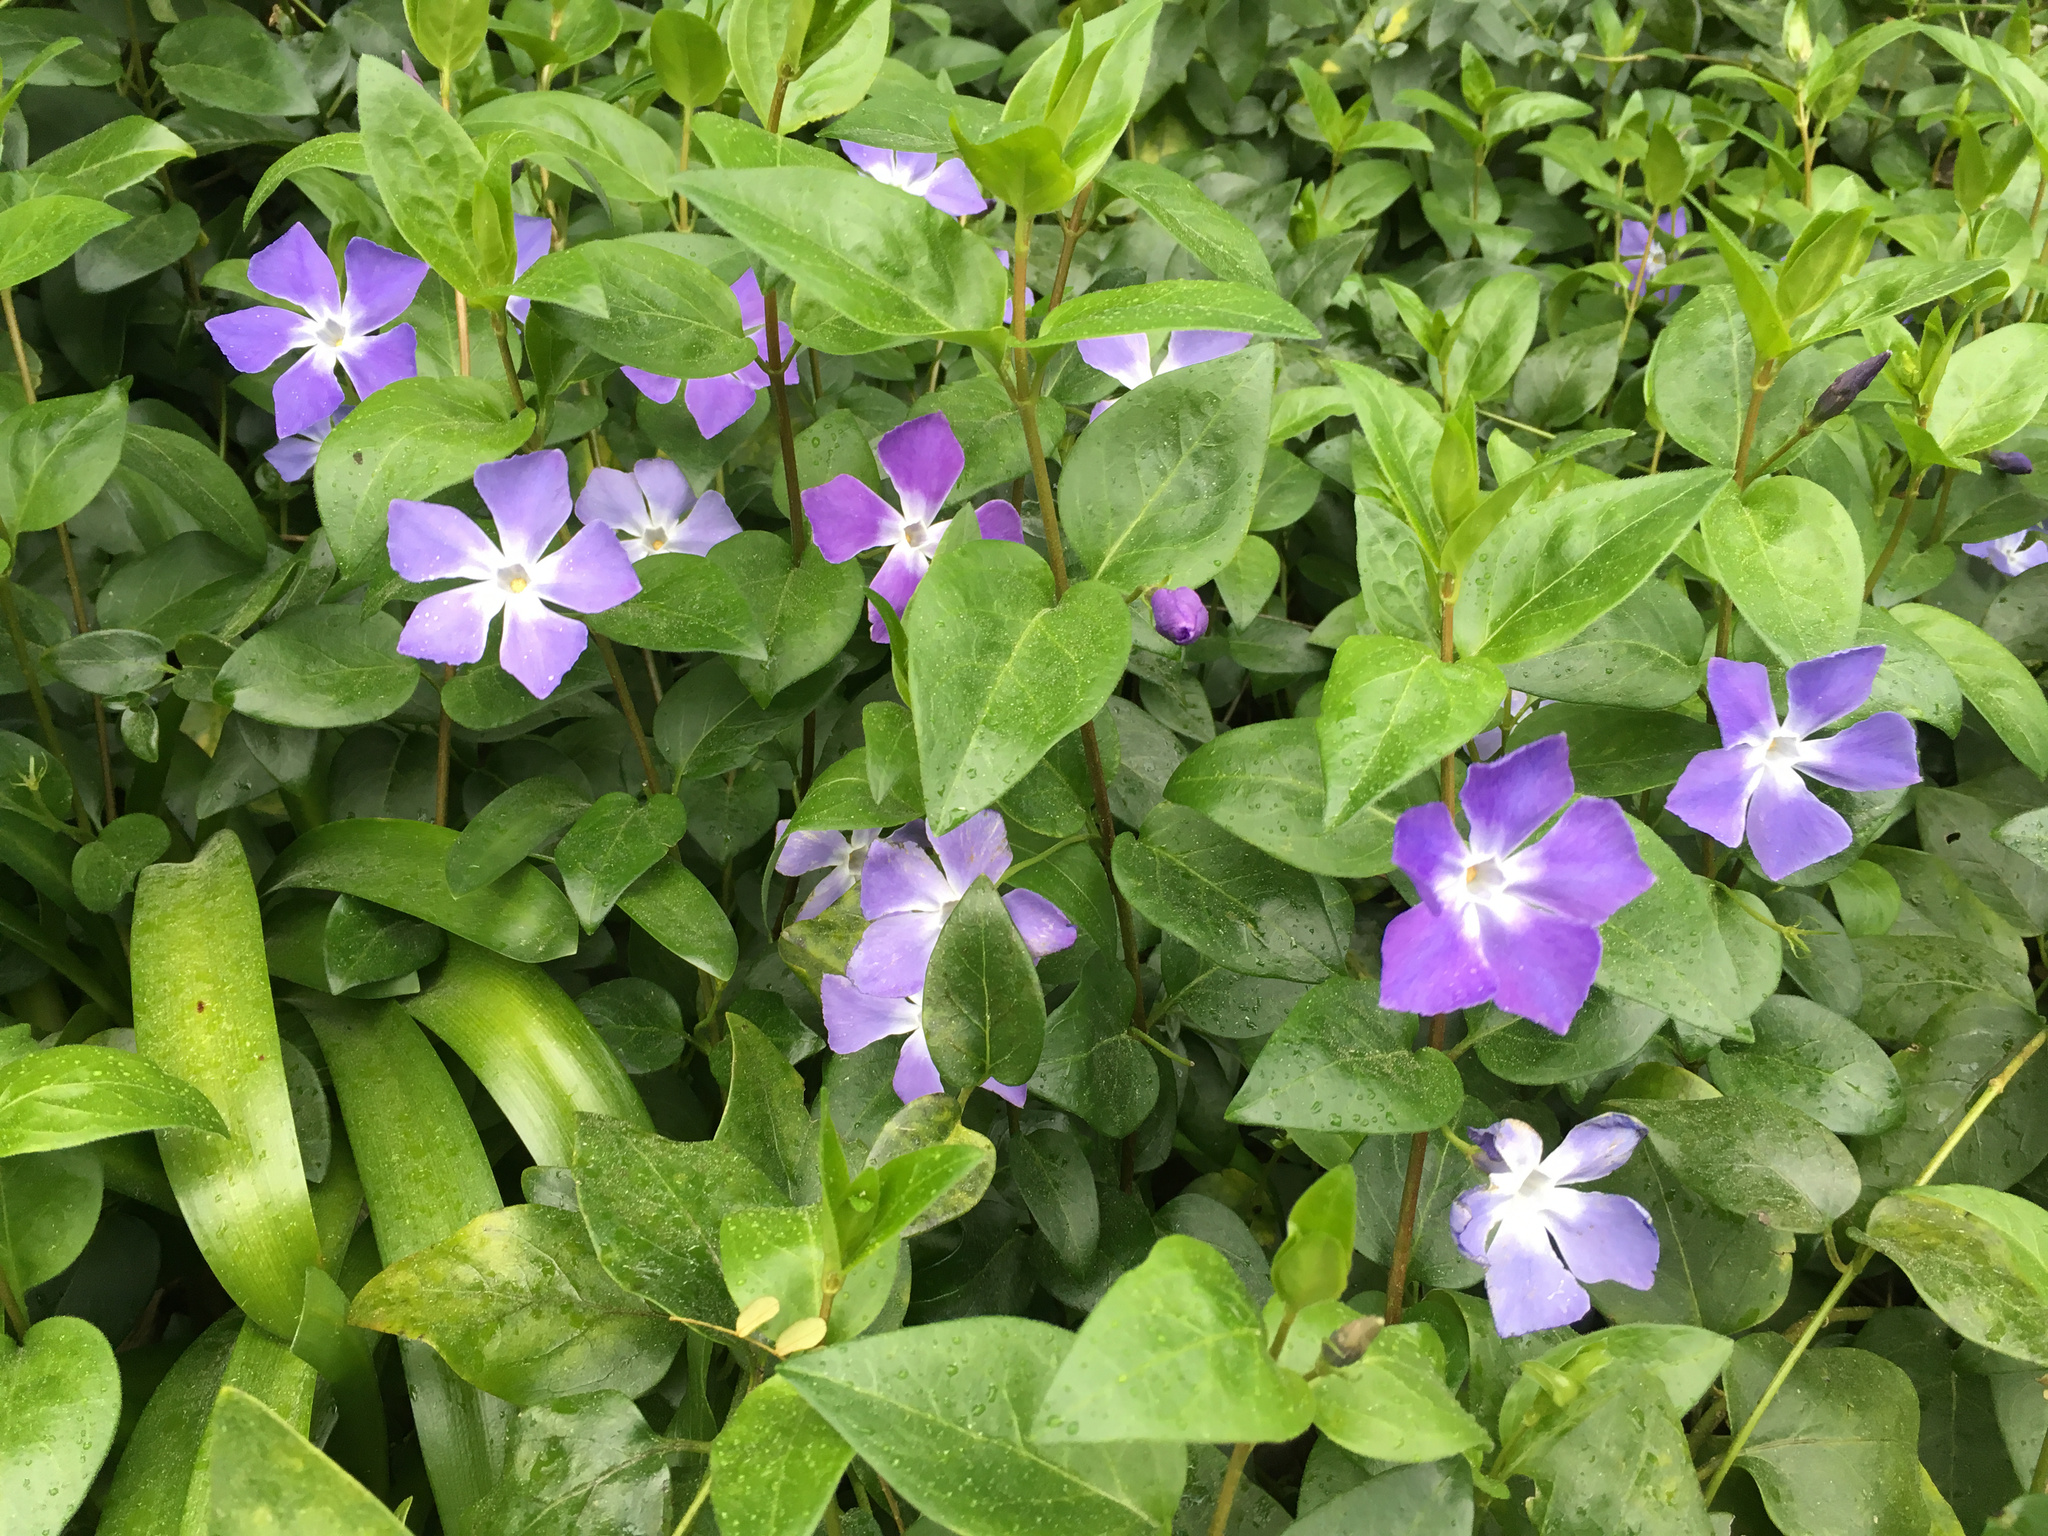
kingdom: Plantae
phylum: Tracheophyta
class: Magnoliopsida
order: Gentianales
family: Apocynaceae
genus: Vinca
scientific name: Vinca major
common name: Greater periwinkle
